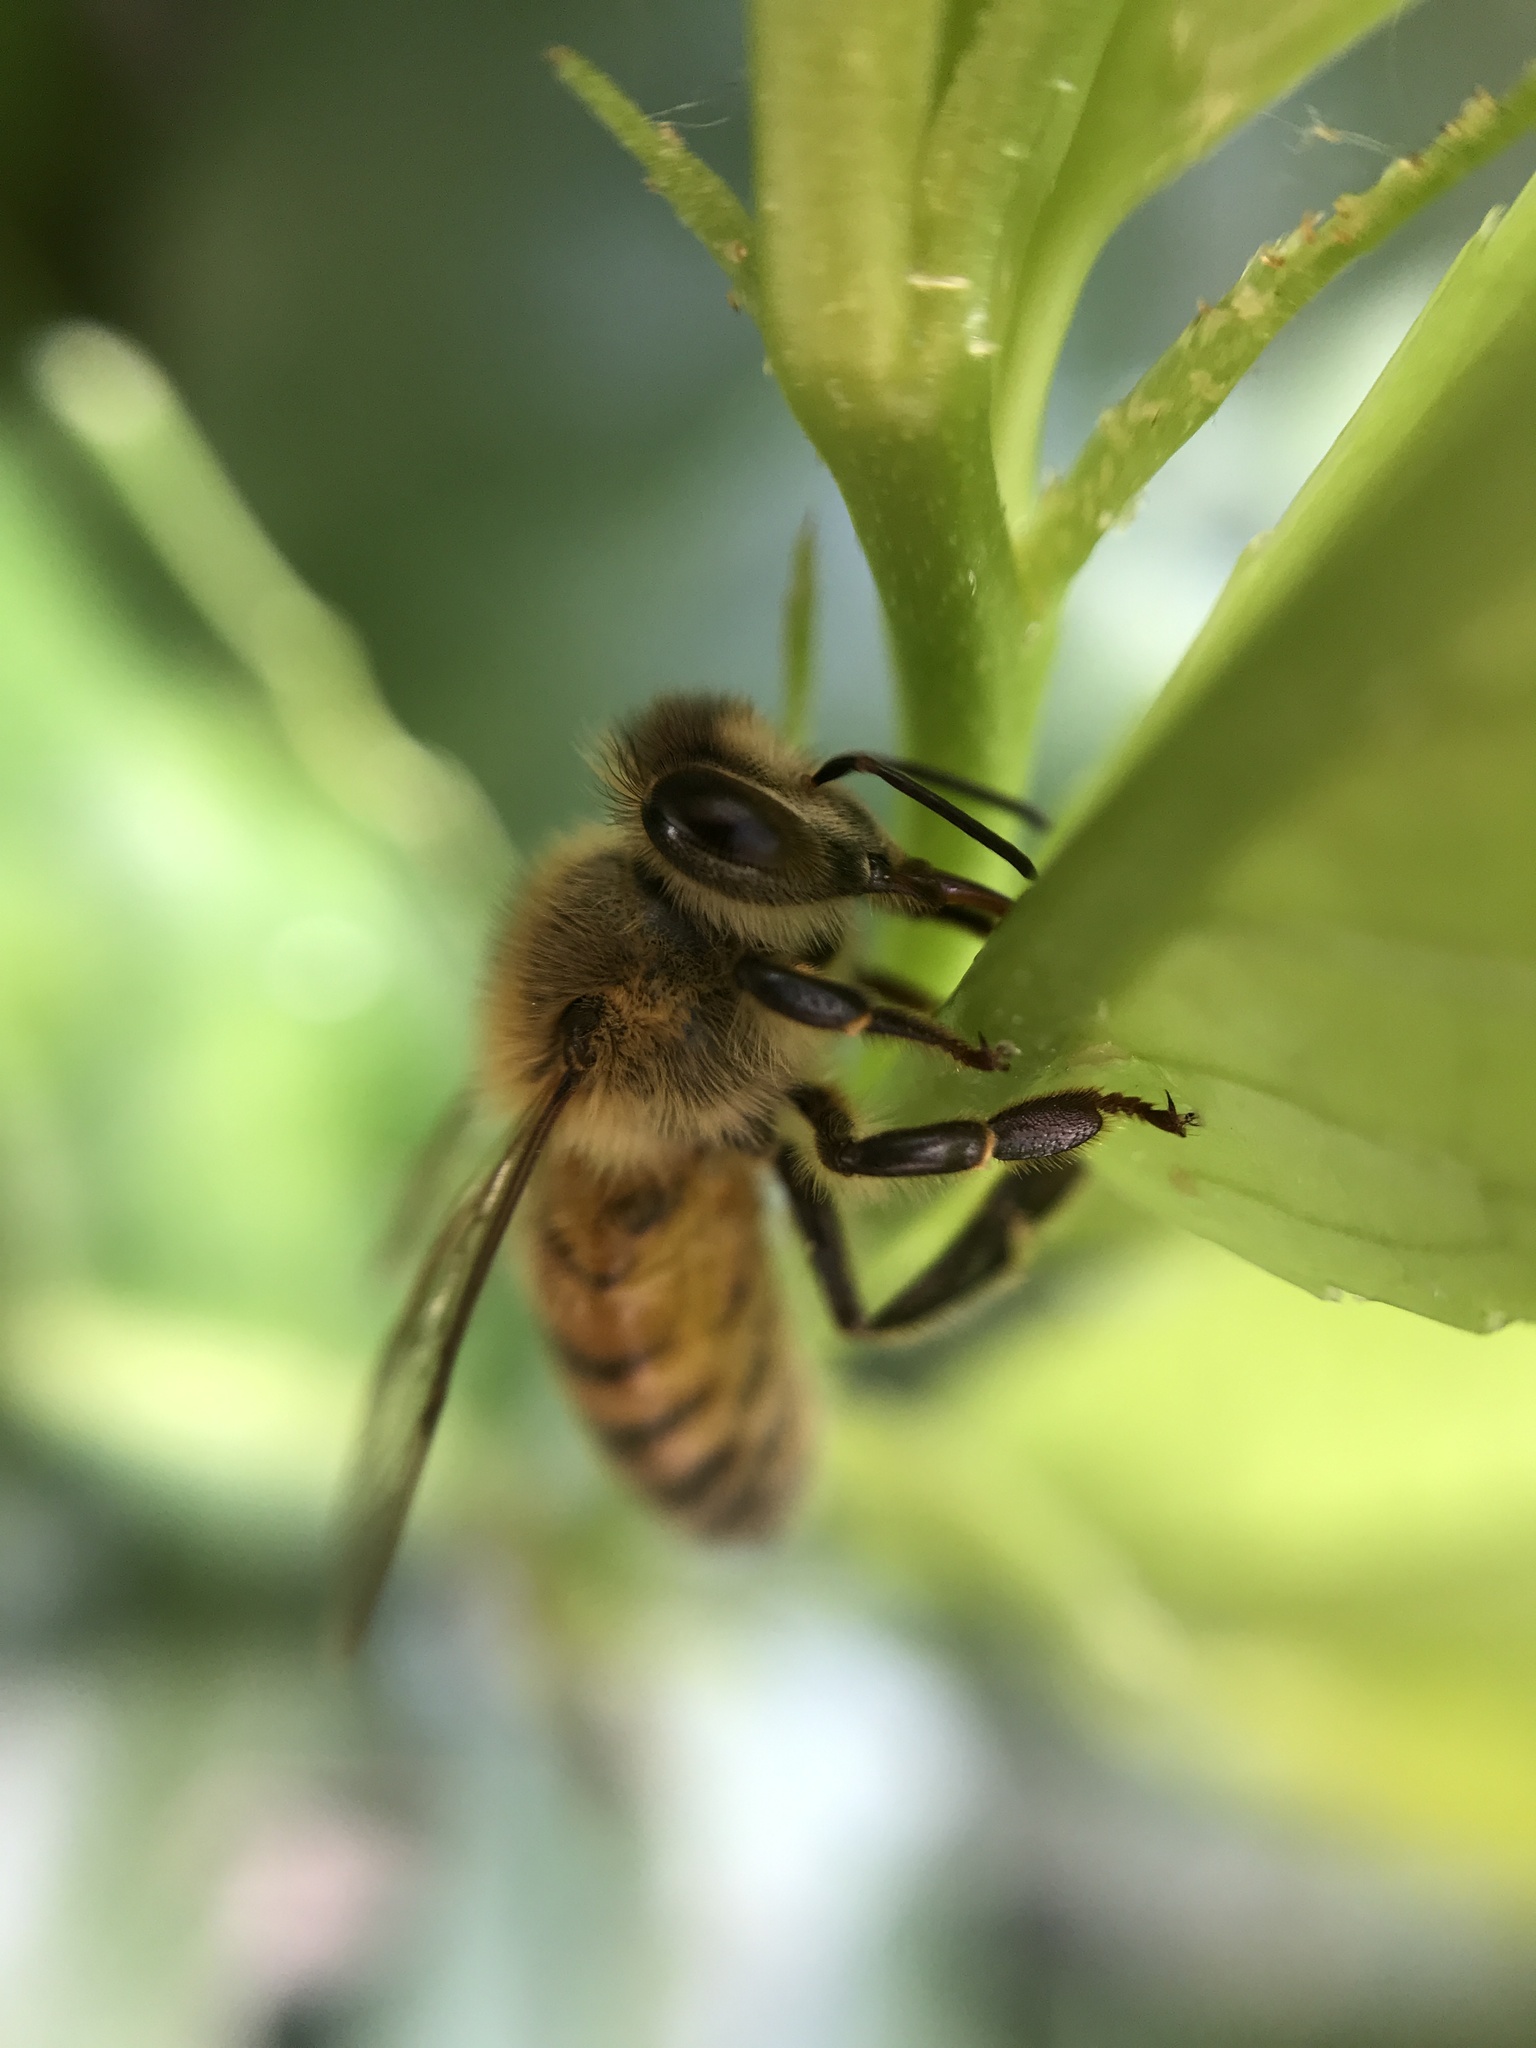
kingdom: Animalia
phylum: Arthropoda
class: Insecta
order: Hymenoptera
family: Apidae
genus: Apis
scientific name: Apis mellifera
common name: Honey bee
